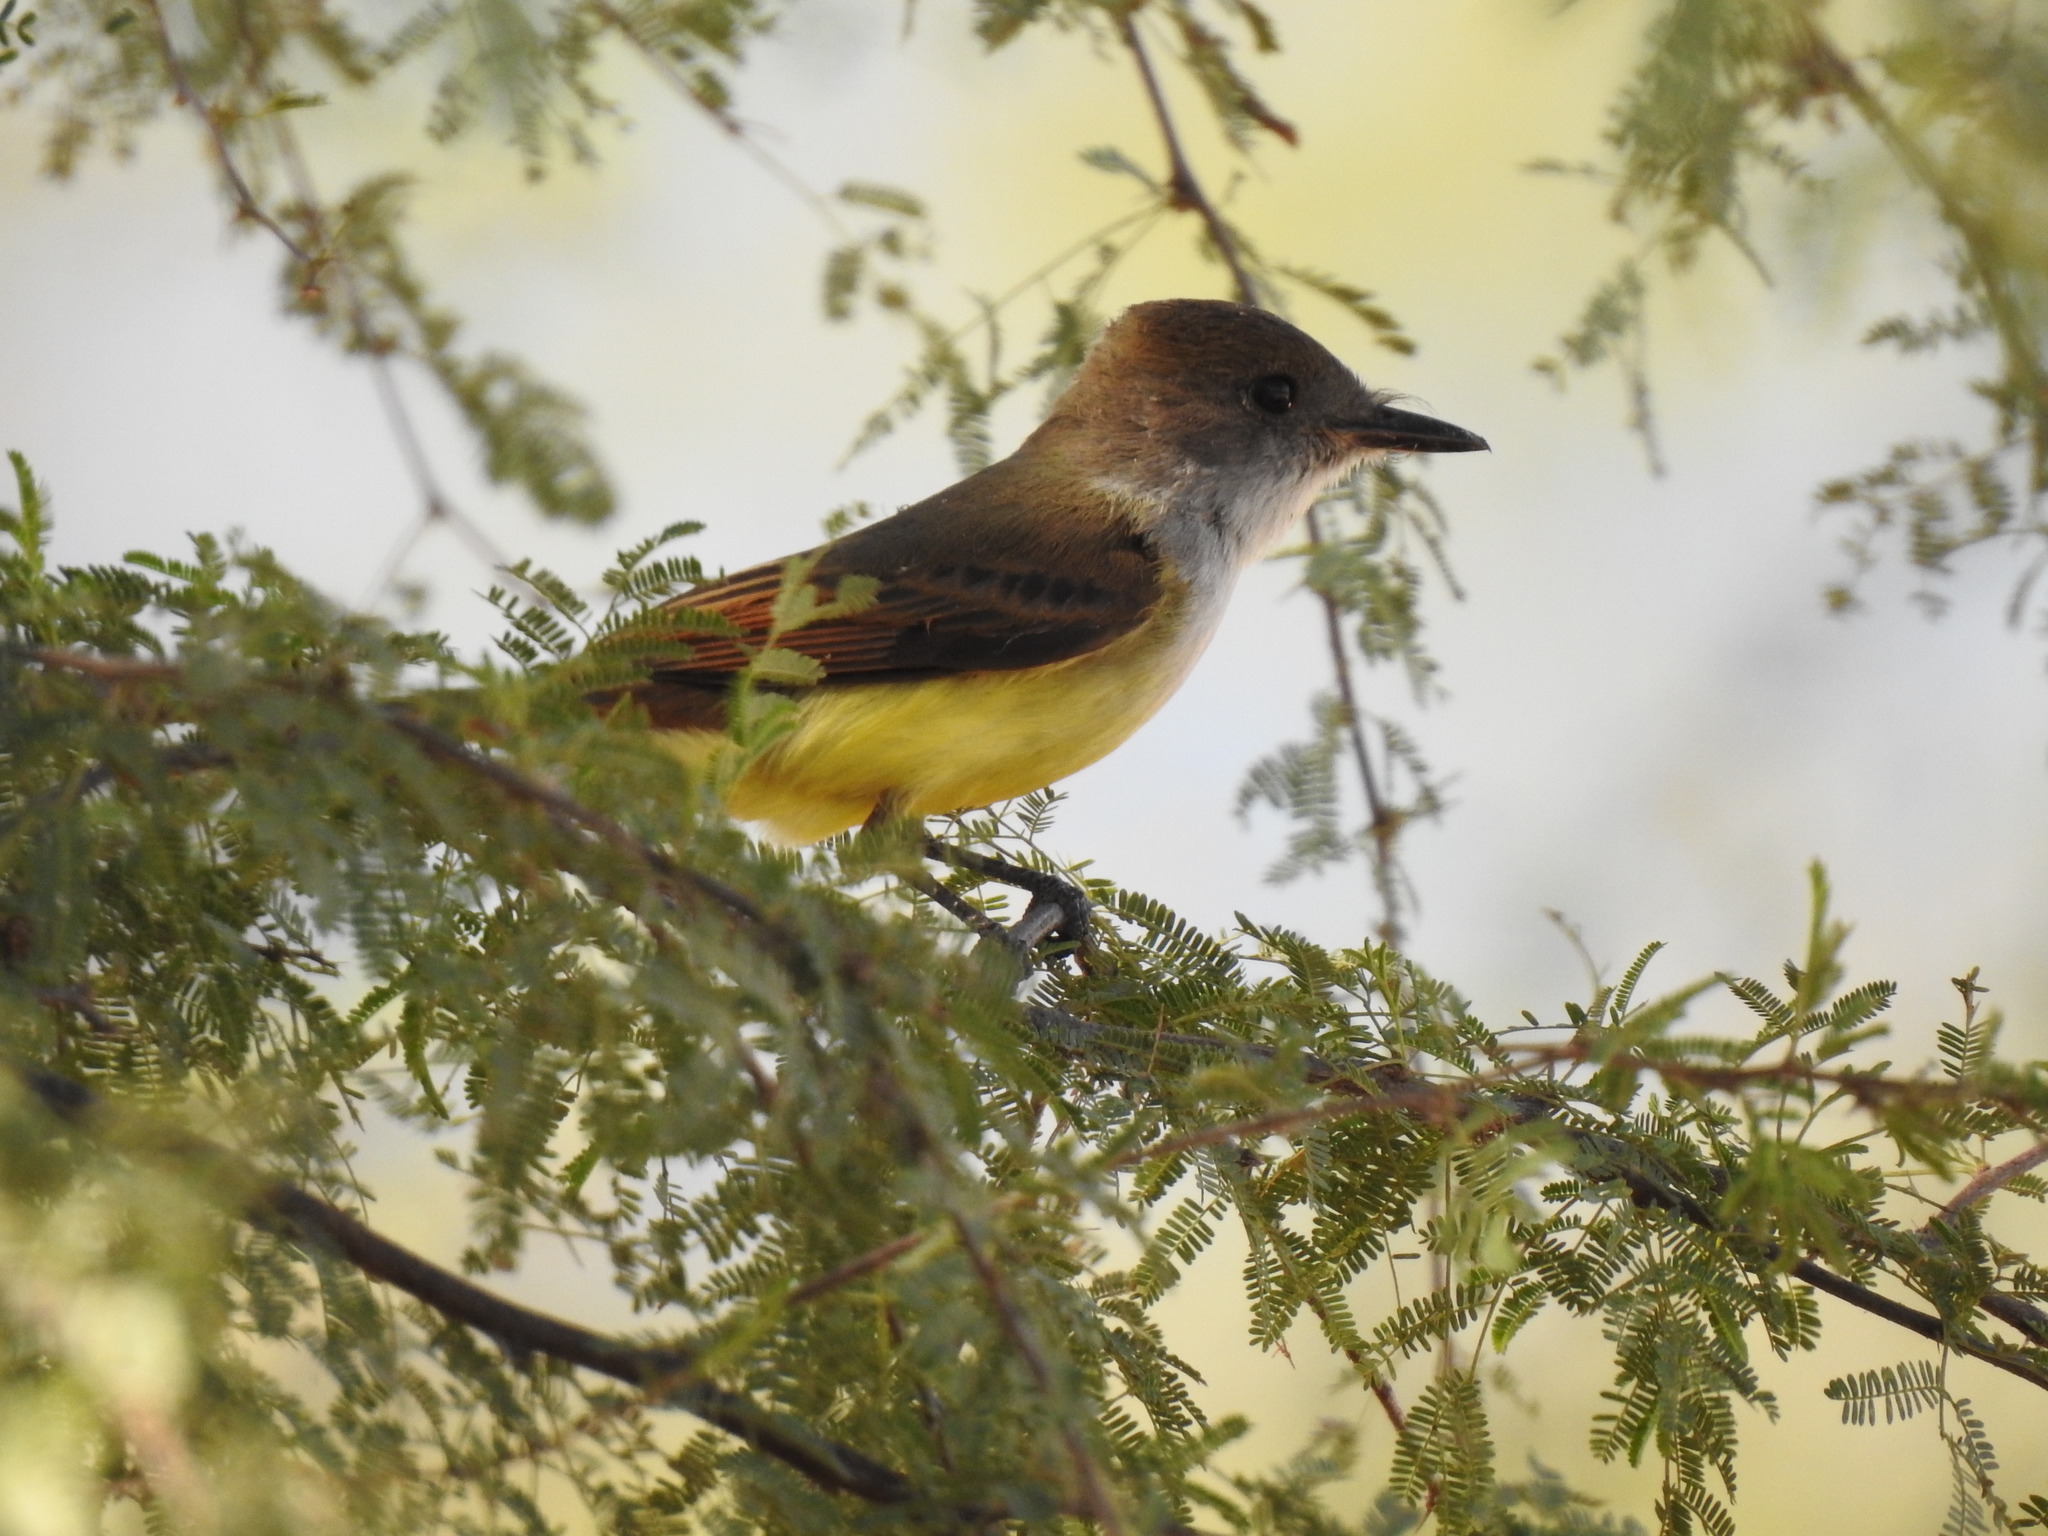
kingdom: Animalia
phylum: Chordata
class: Aves
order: Passeriformes
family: Tyrannidae
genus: Myiarchus
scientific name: Myiarchus tuberculifer
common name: Dusky-capped flycatcher
